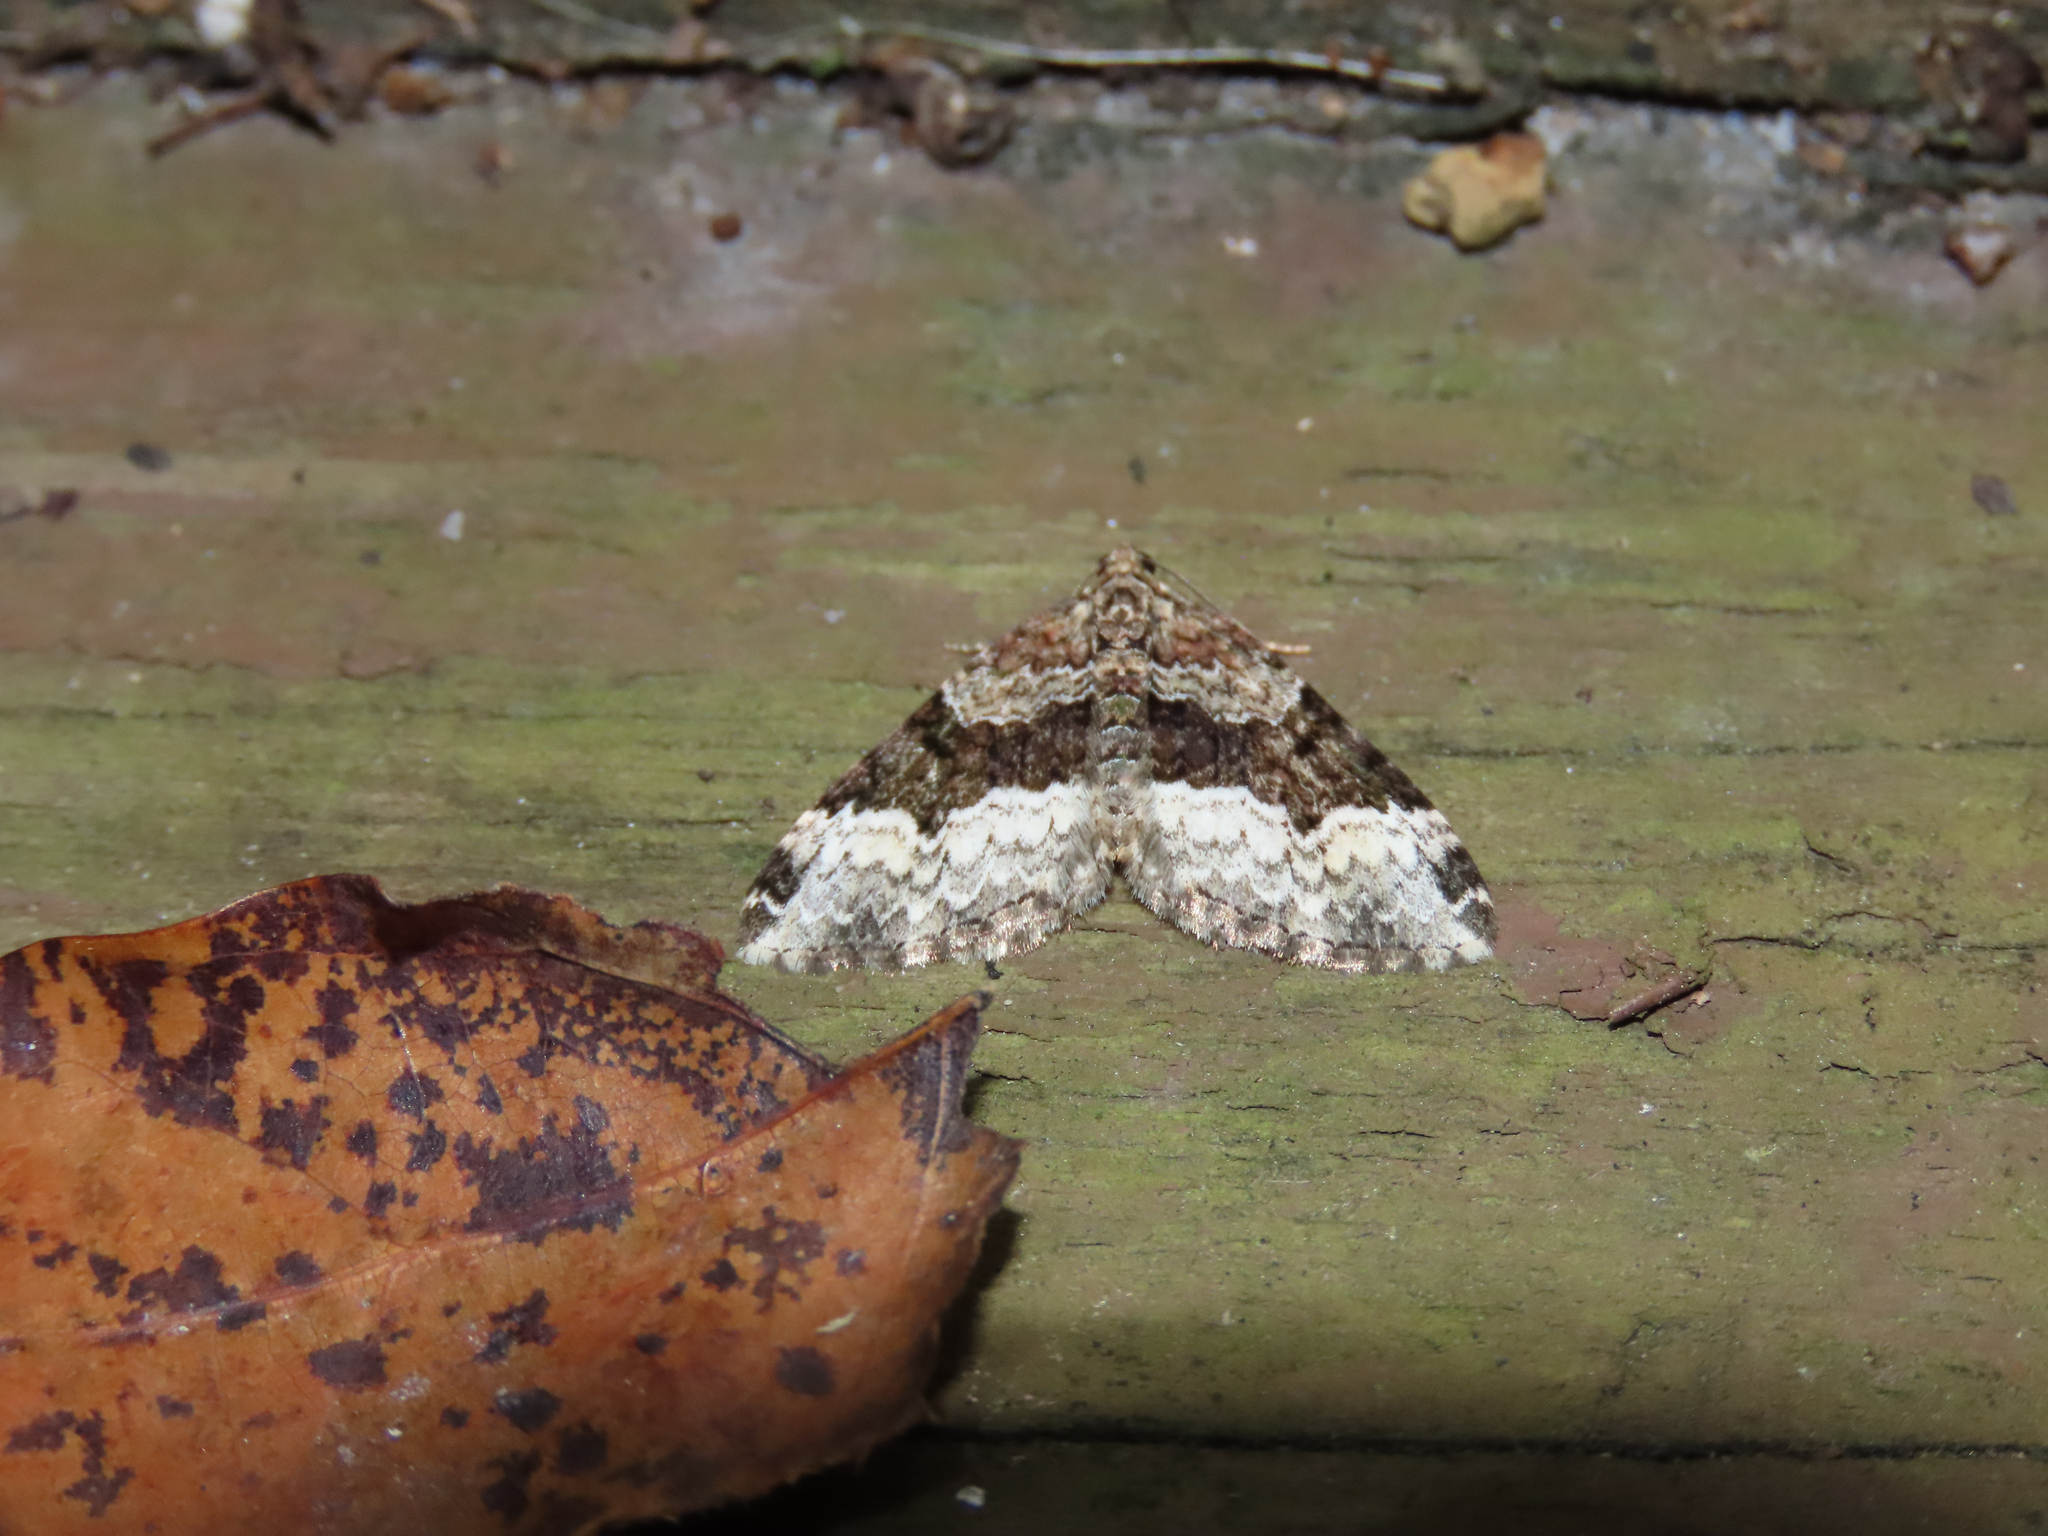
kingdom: Animalia
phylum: Arthropoda
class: Insecta
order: Lepidoptera
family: Geometridae
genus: Euphyia
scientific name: Euphyia intermediata
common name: Sharp-angled carpet
